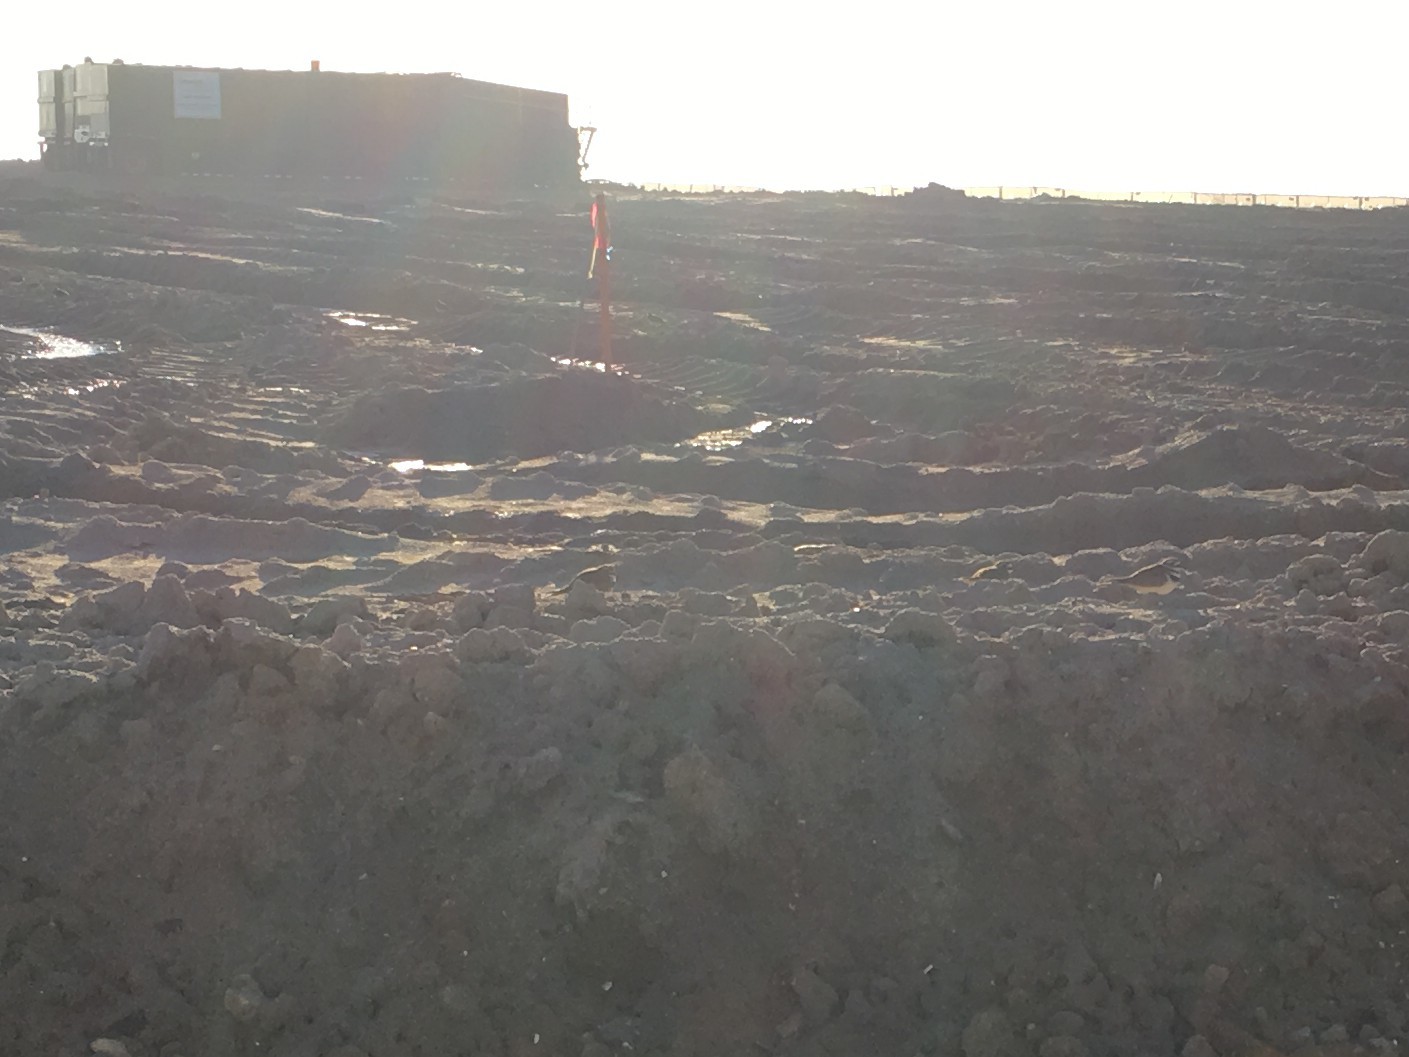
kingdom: Animalia
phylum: Chordata
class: Aves
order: Charadriiformes
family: Charadriidae
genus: Charadrius
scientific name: Charadrius vociferus
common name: Killdeer
